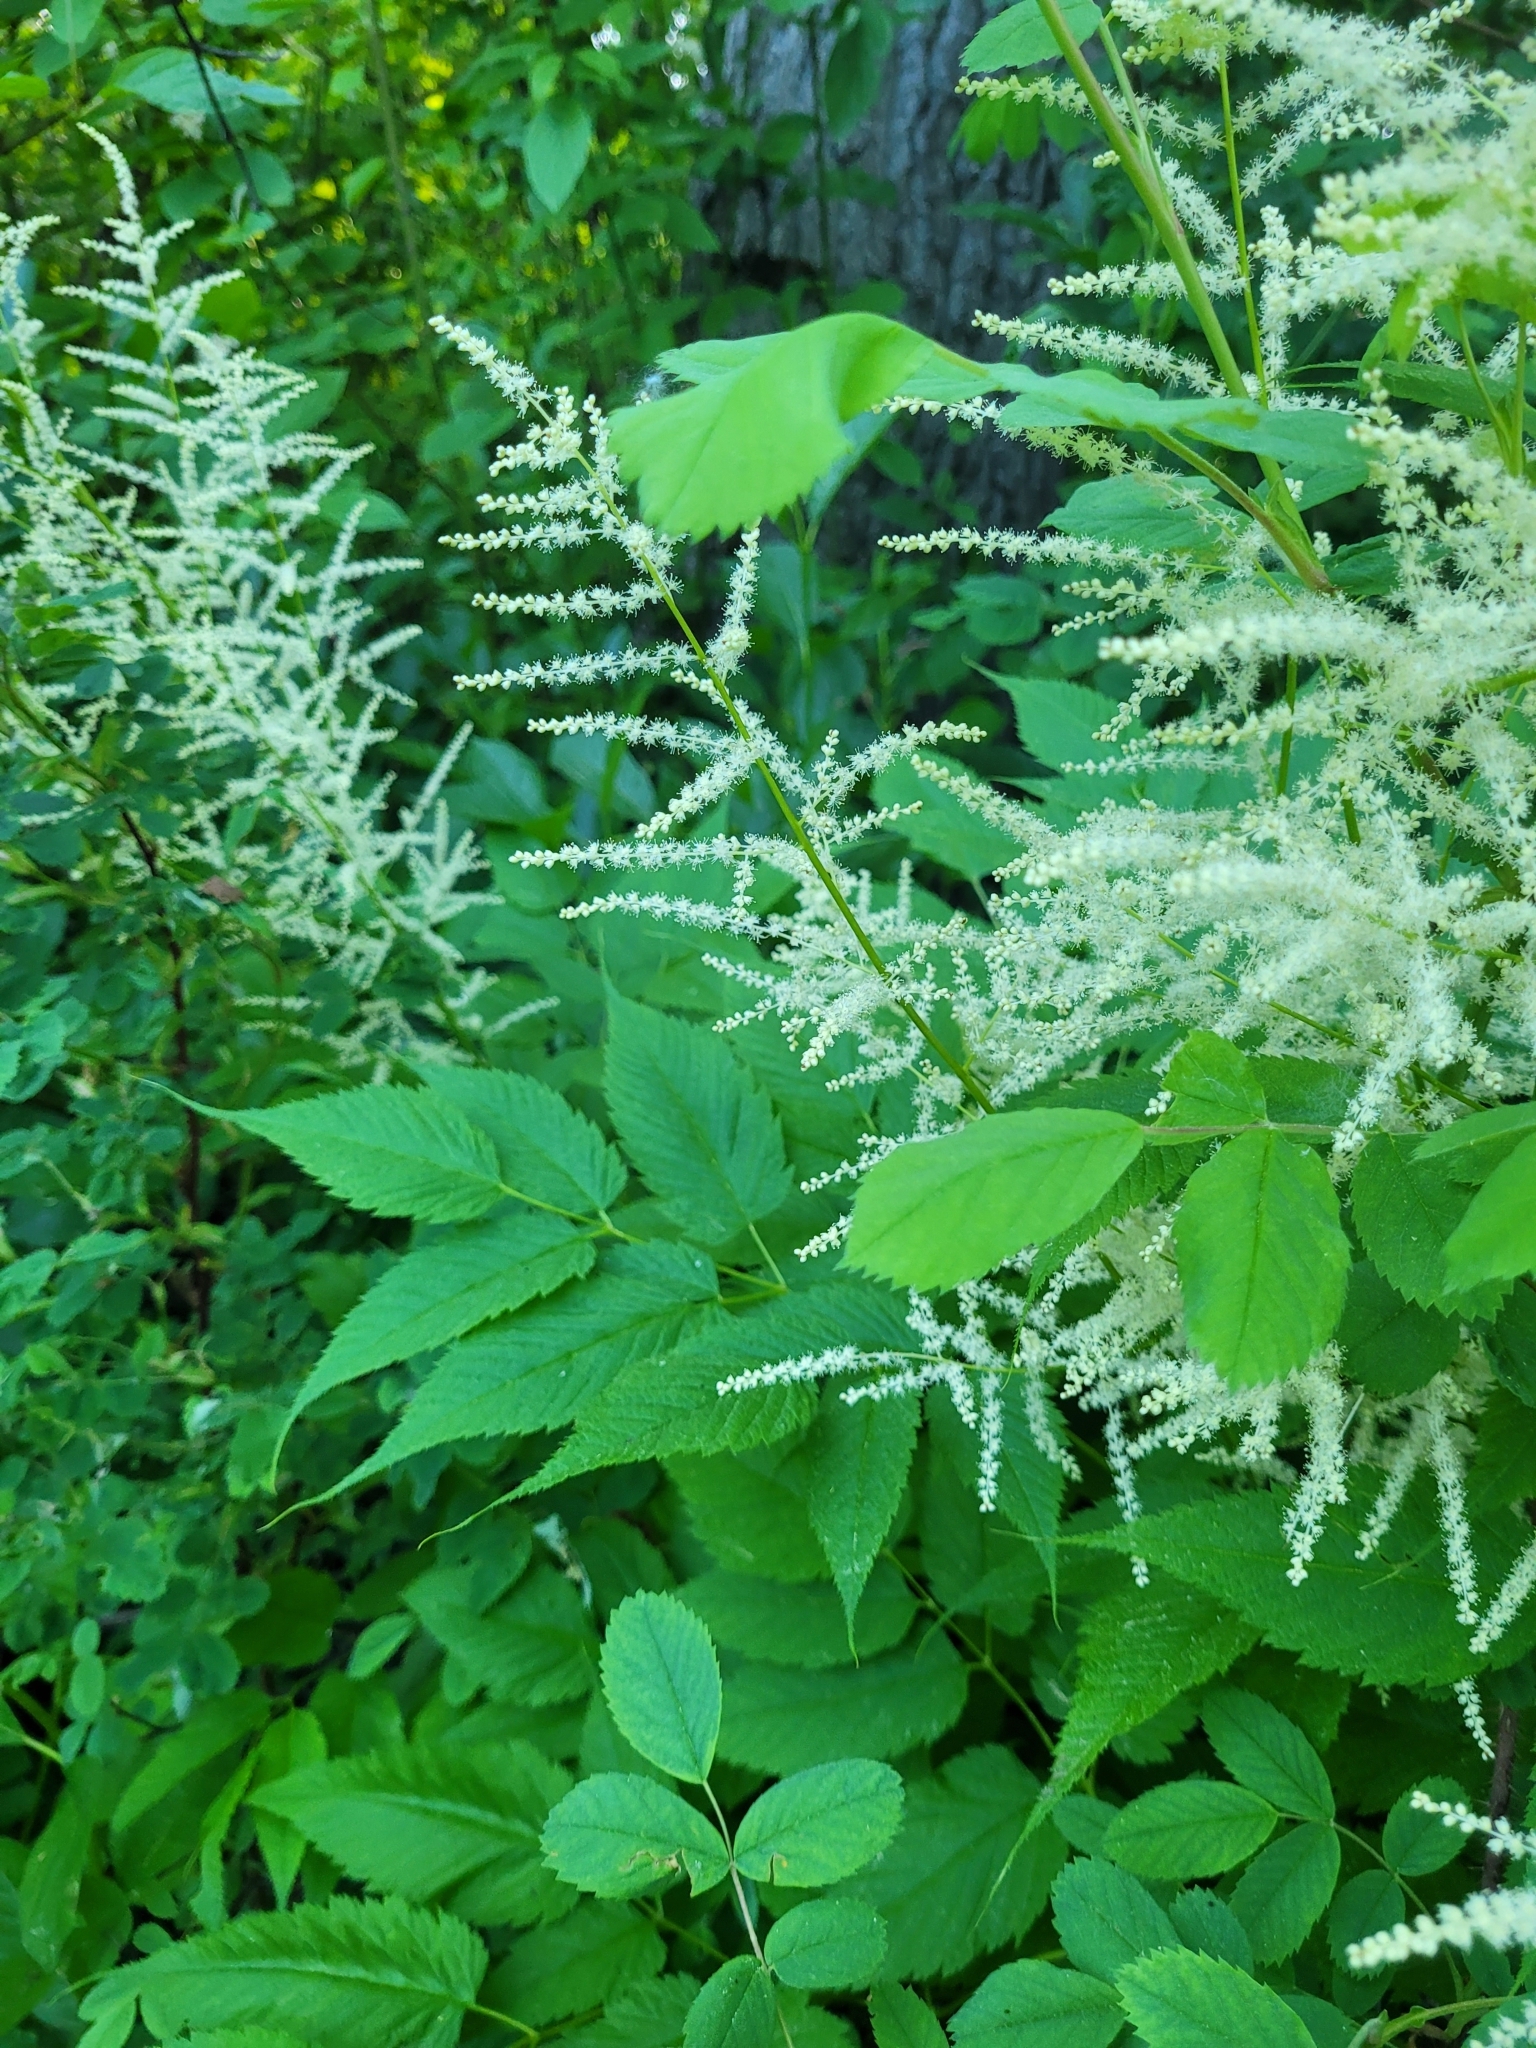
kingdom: Plantae
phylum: Tracheophyta
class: Magnoliopsida
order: Rosales
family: Rosaceae
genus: Aruncus
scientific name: Aruncus dioicus
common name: Buck's-beard
